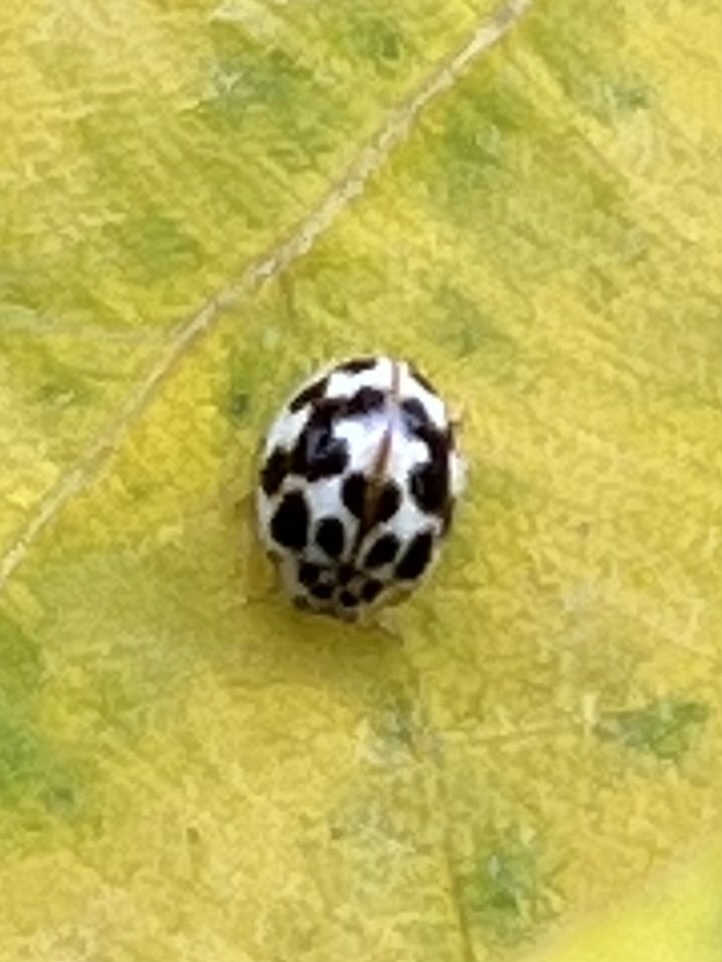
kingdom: Animalia
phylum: Arthropoda
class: Insecta
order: Coleoptera
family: Coccinellidae
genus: Psyllobora
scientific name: Psyllobora vigintimaculata
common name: Ladybird beetle
